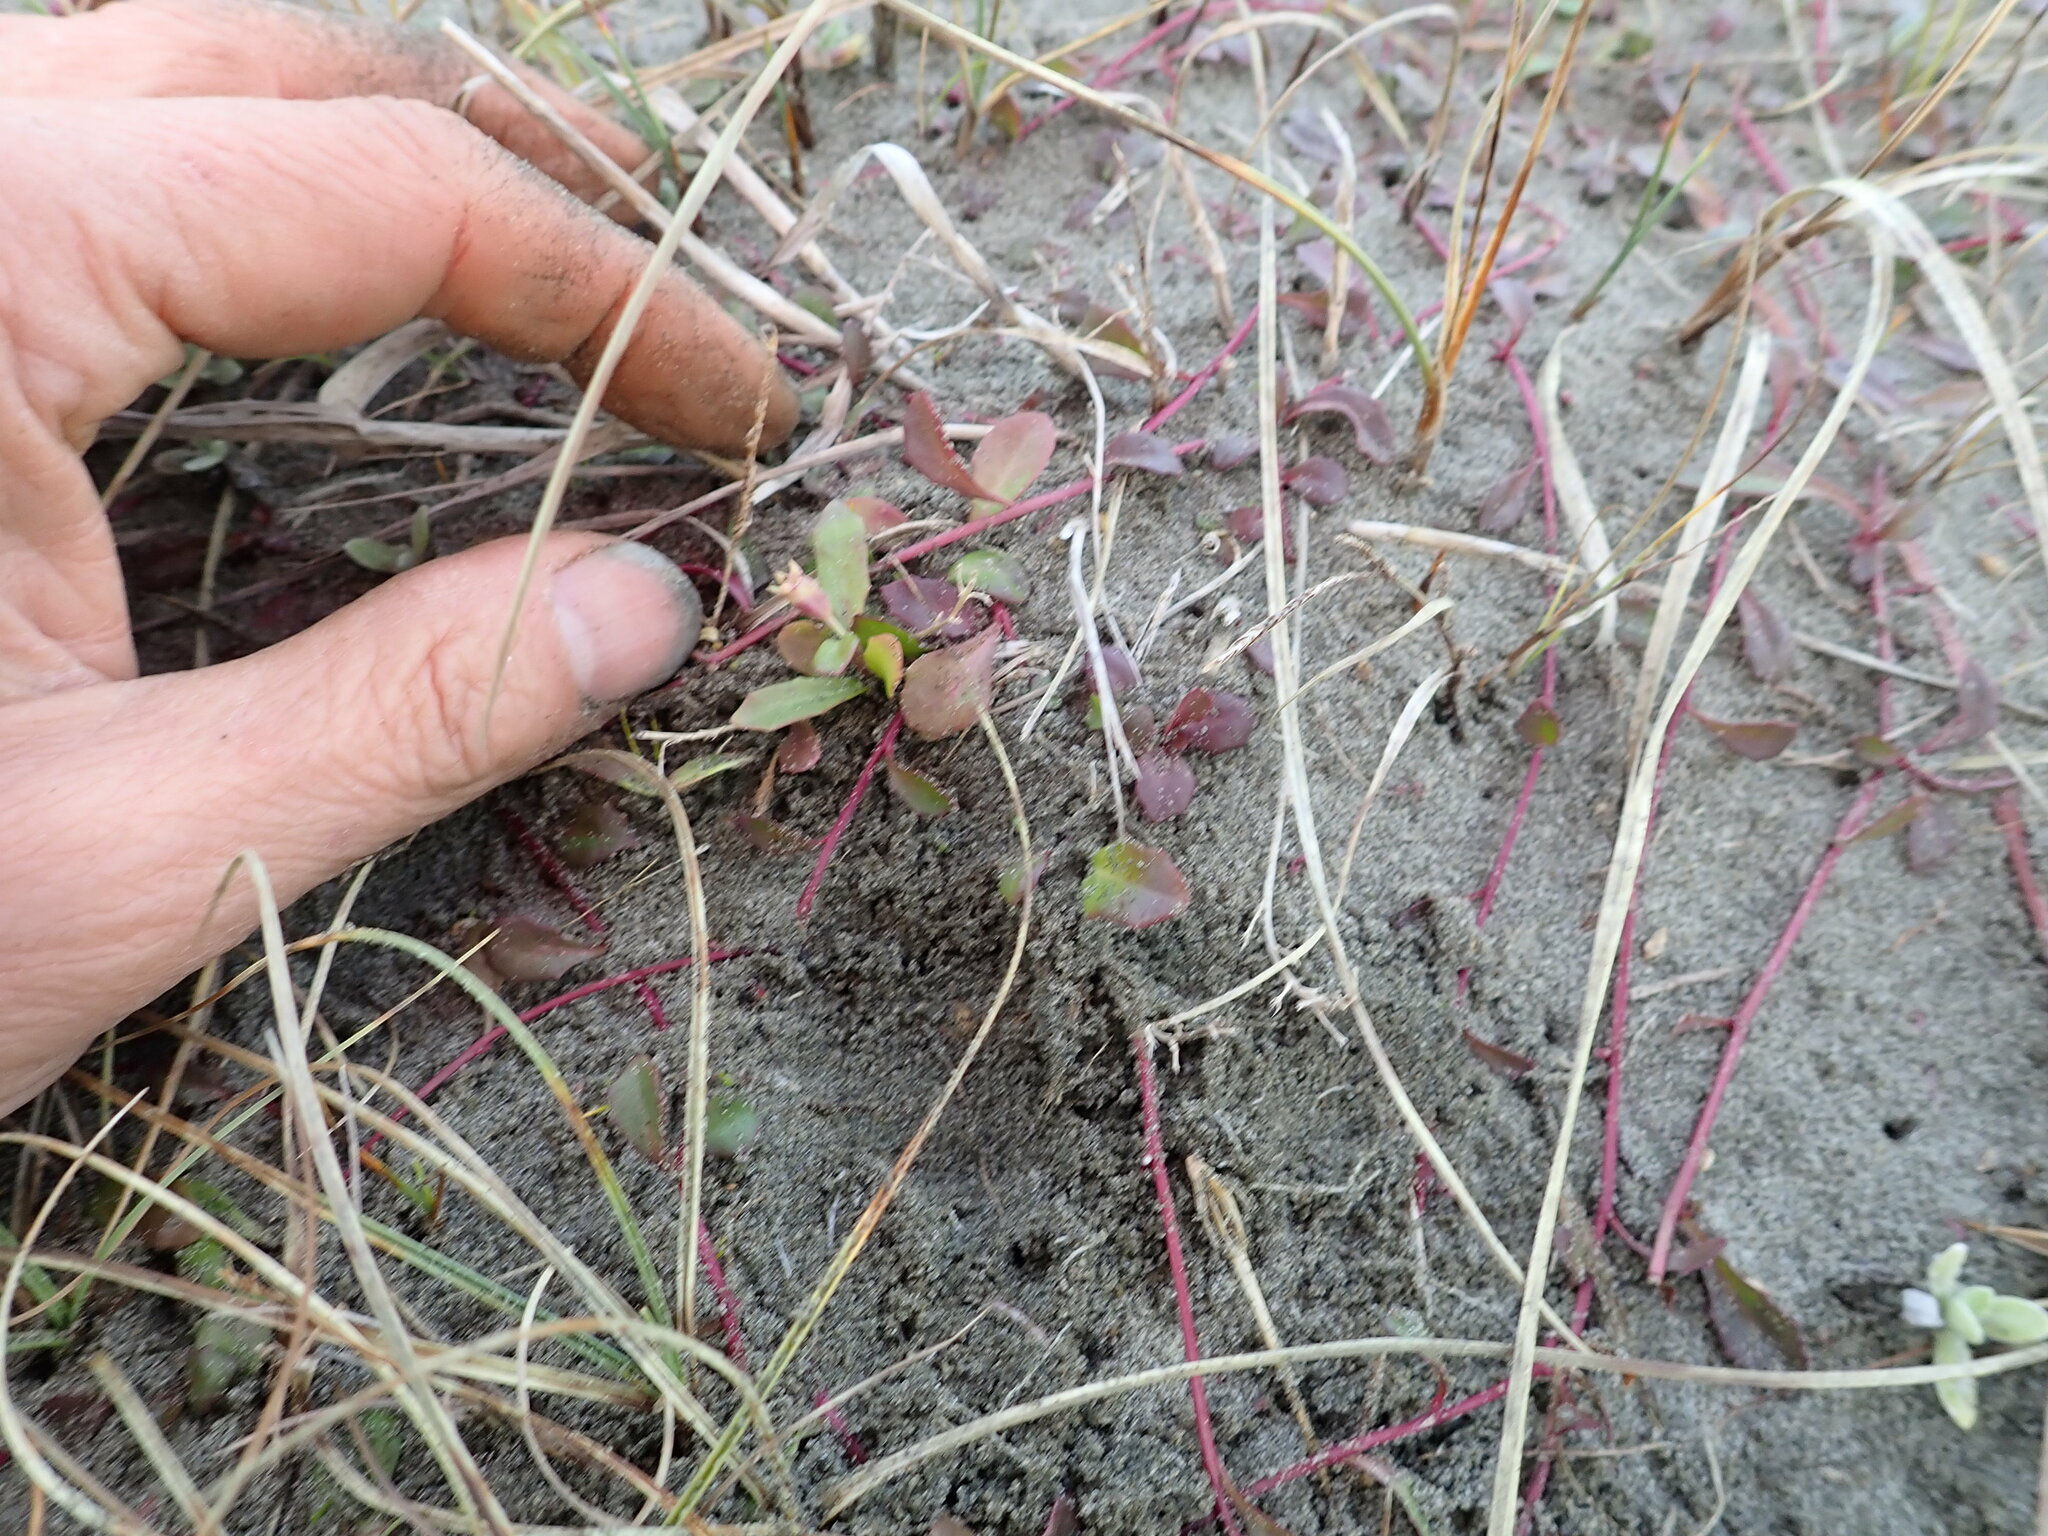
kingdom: Plantae
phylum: Tracheophyta
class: Magnoliopsida
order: Asterales
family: Campanulaceae
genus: Lobelia
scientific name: Lobelia anceps
